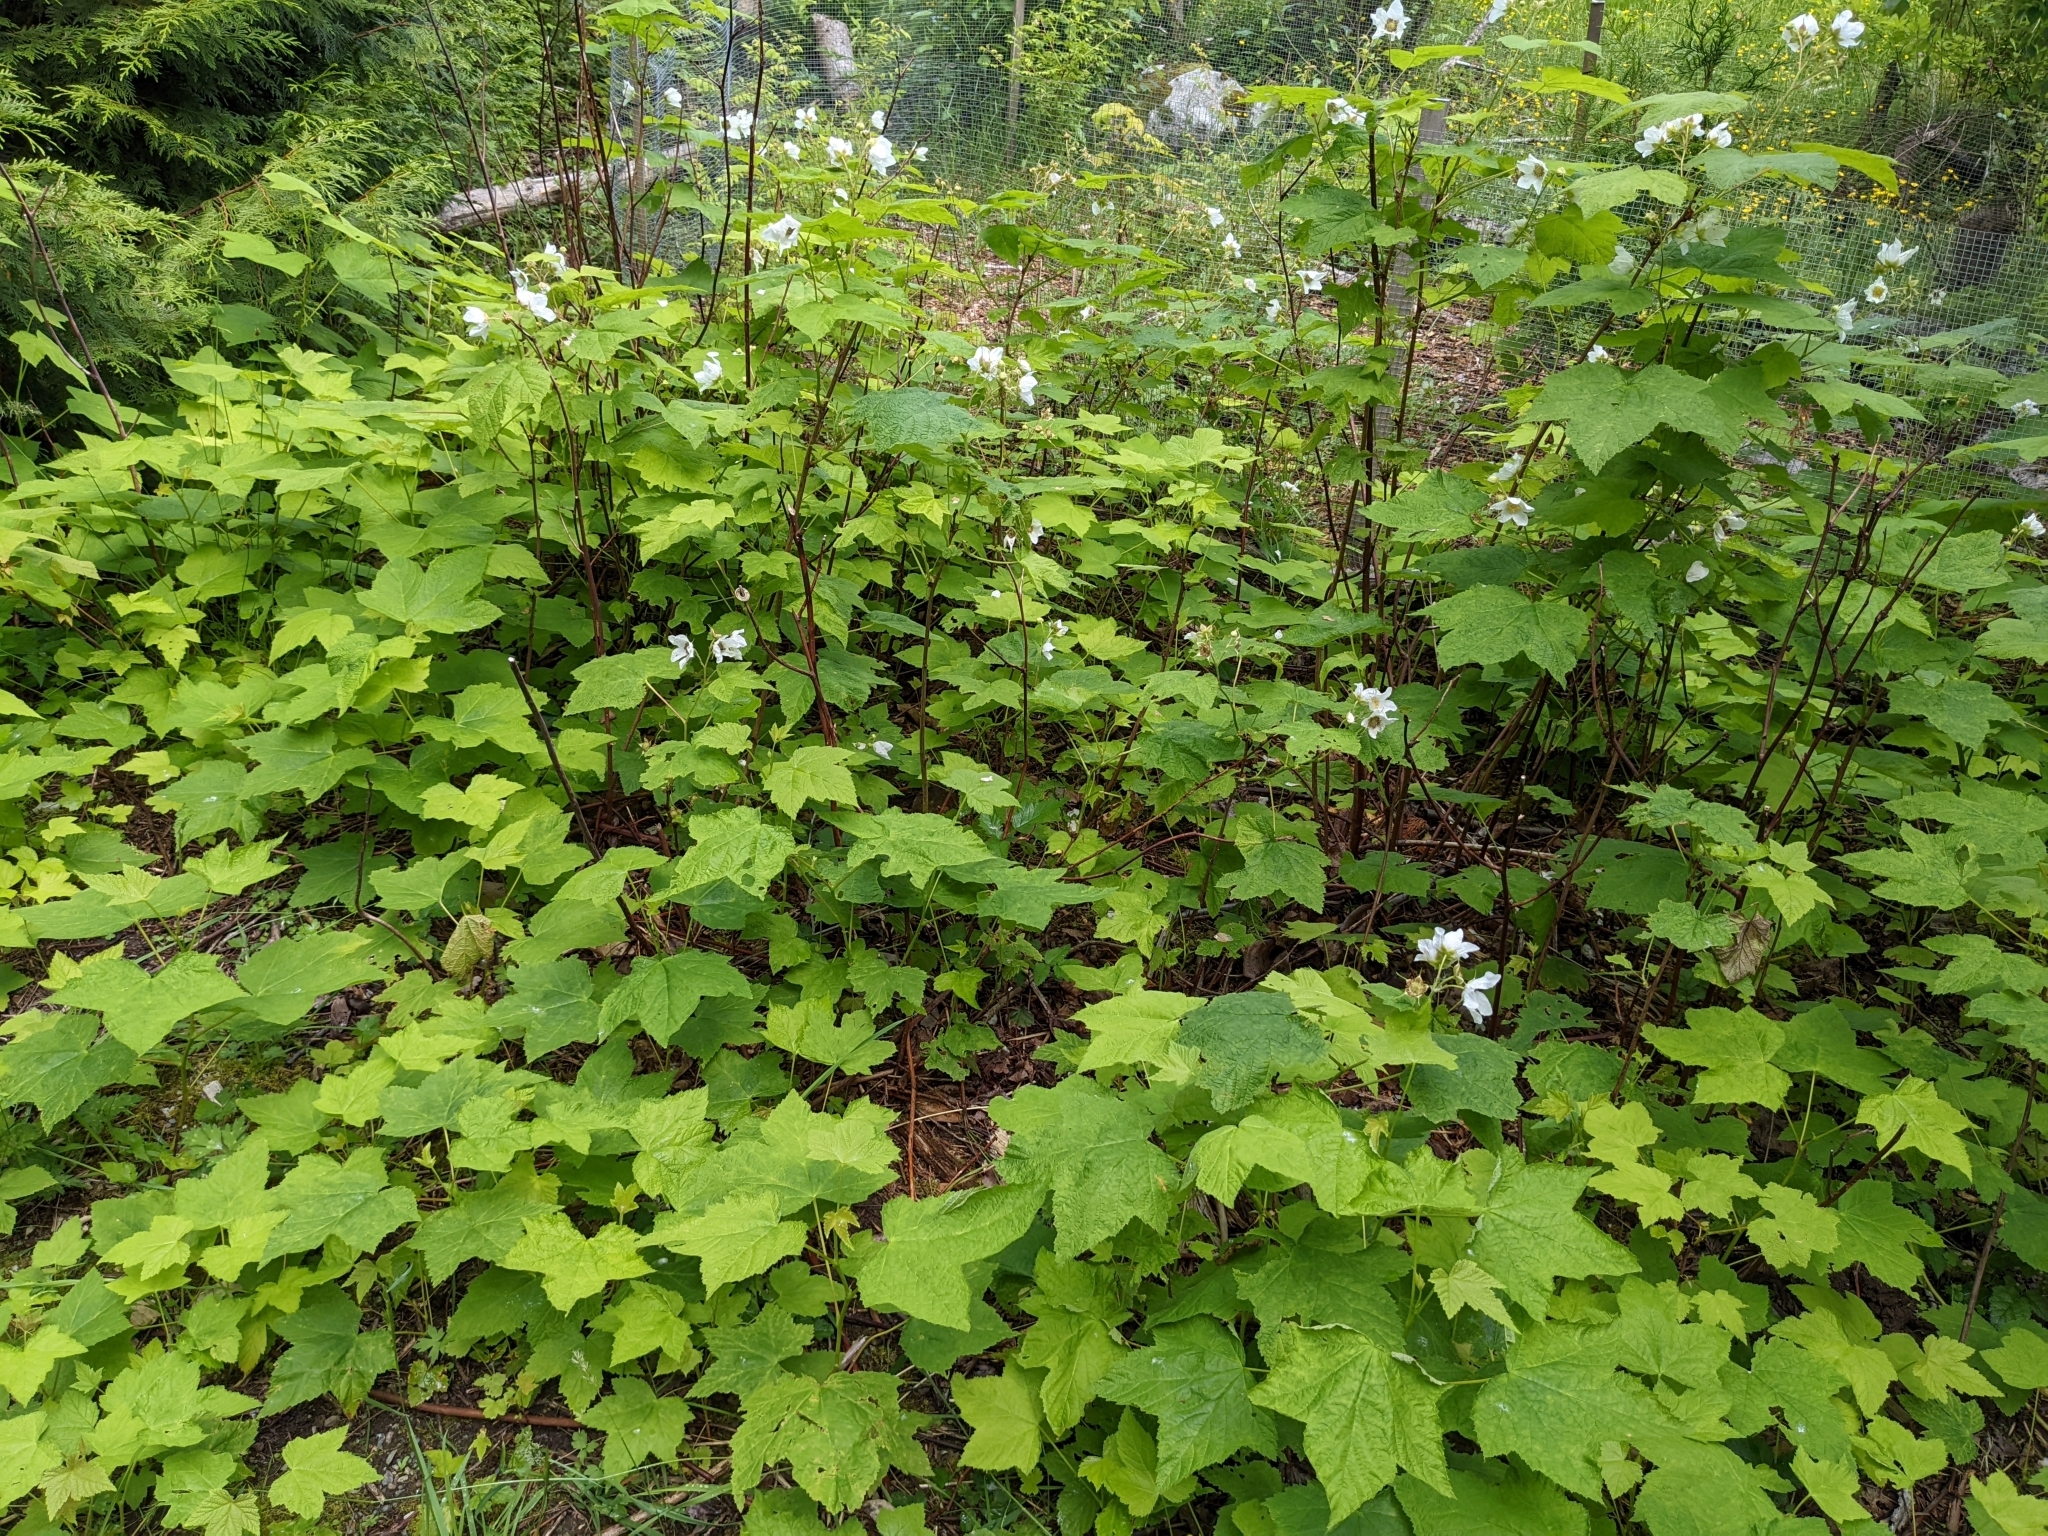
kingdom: Plantae
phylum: Tracheophyta
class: Magnoliopsida
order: Rosales
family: Rosaceae
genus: Rubus
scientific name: Rubus parviflorus
